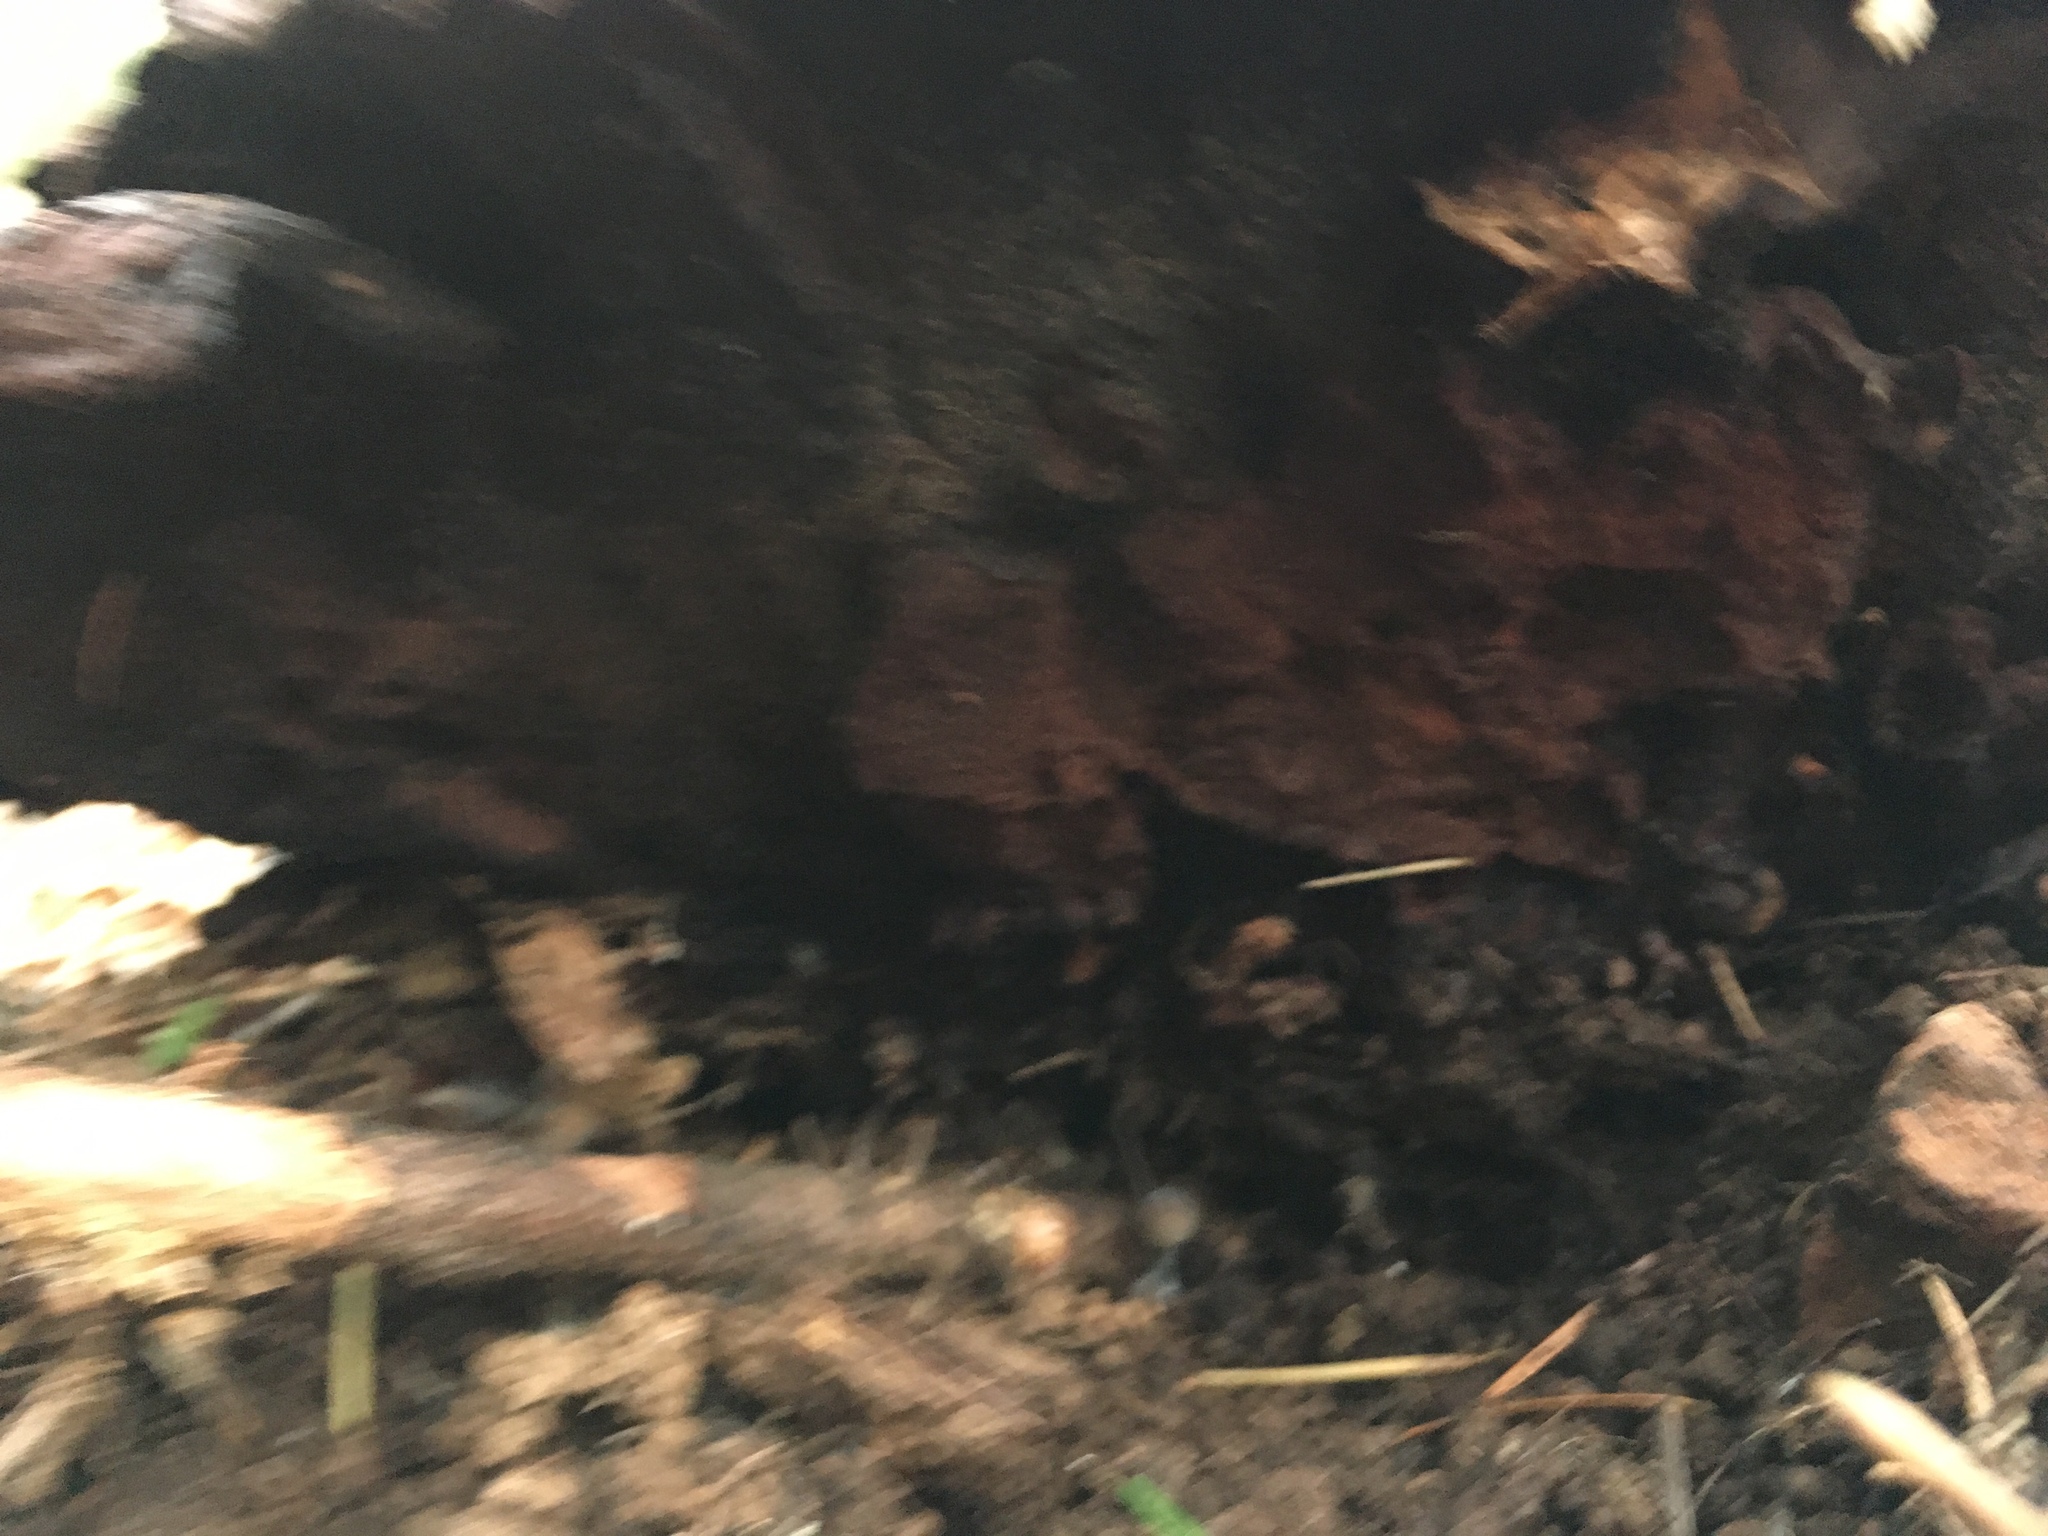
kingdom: Fungi
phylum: Basidiomycota
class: Agaricomycetes
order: Polyporales
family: Laetiporaceae
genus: Phaeolus
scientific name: Phaeolus schweinitzii
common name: Dyer's mazegill
